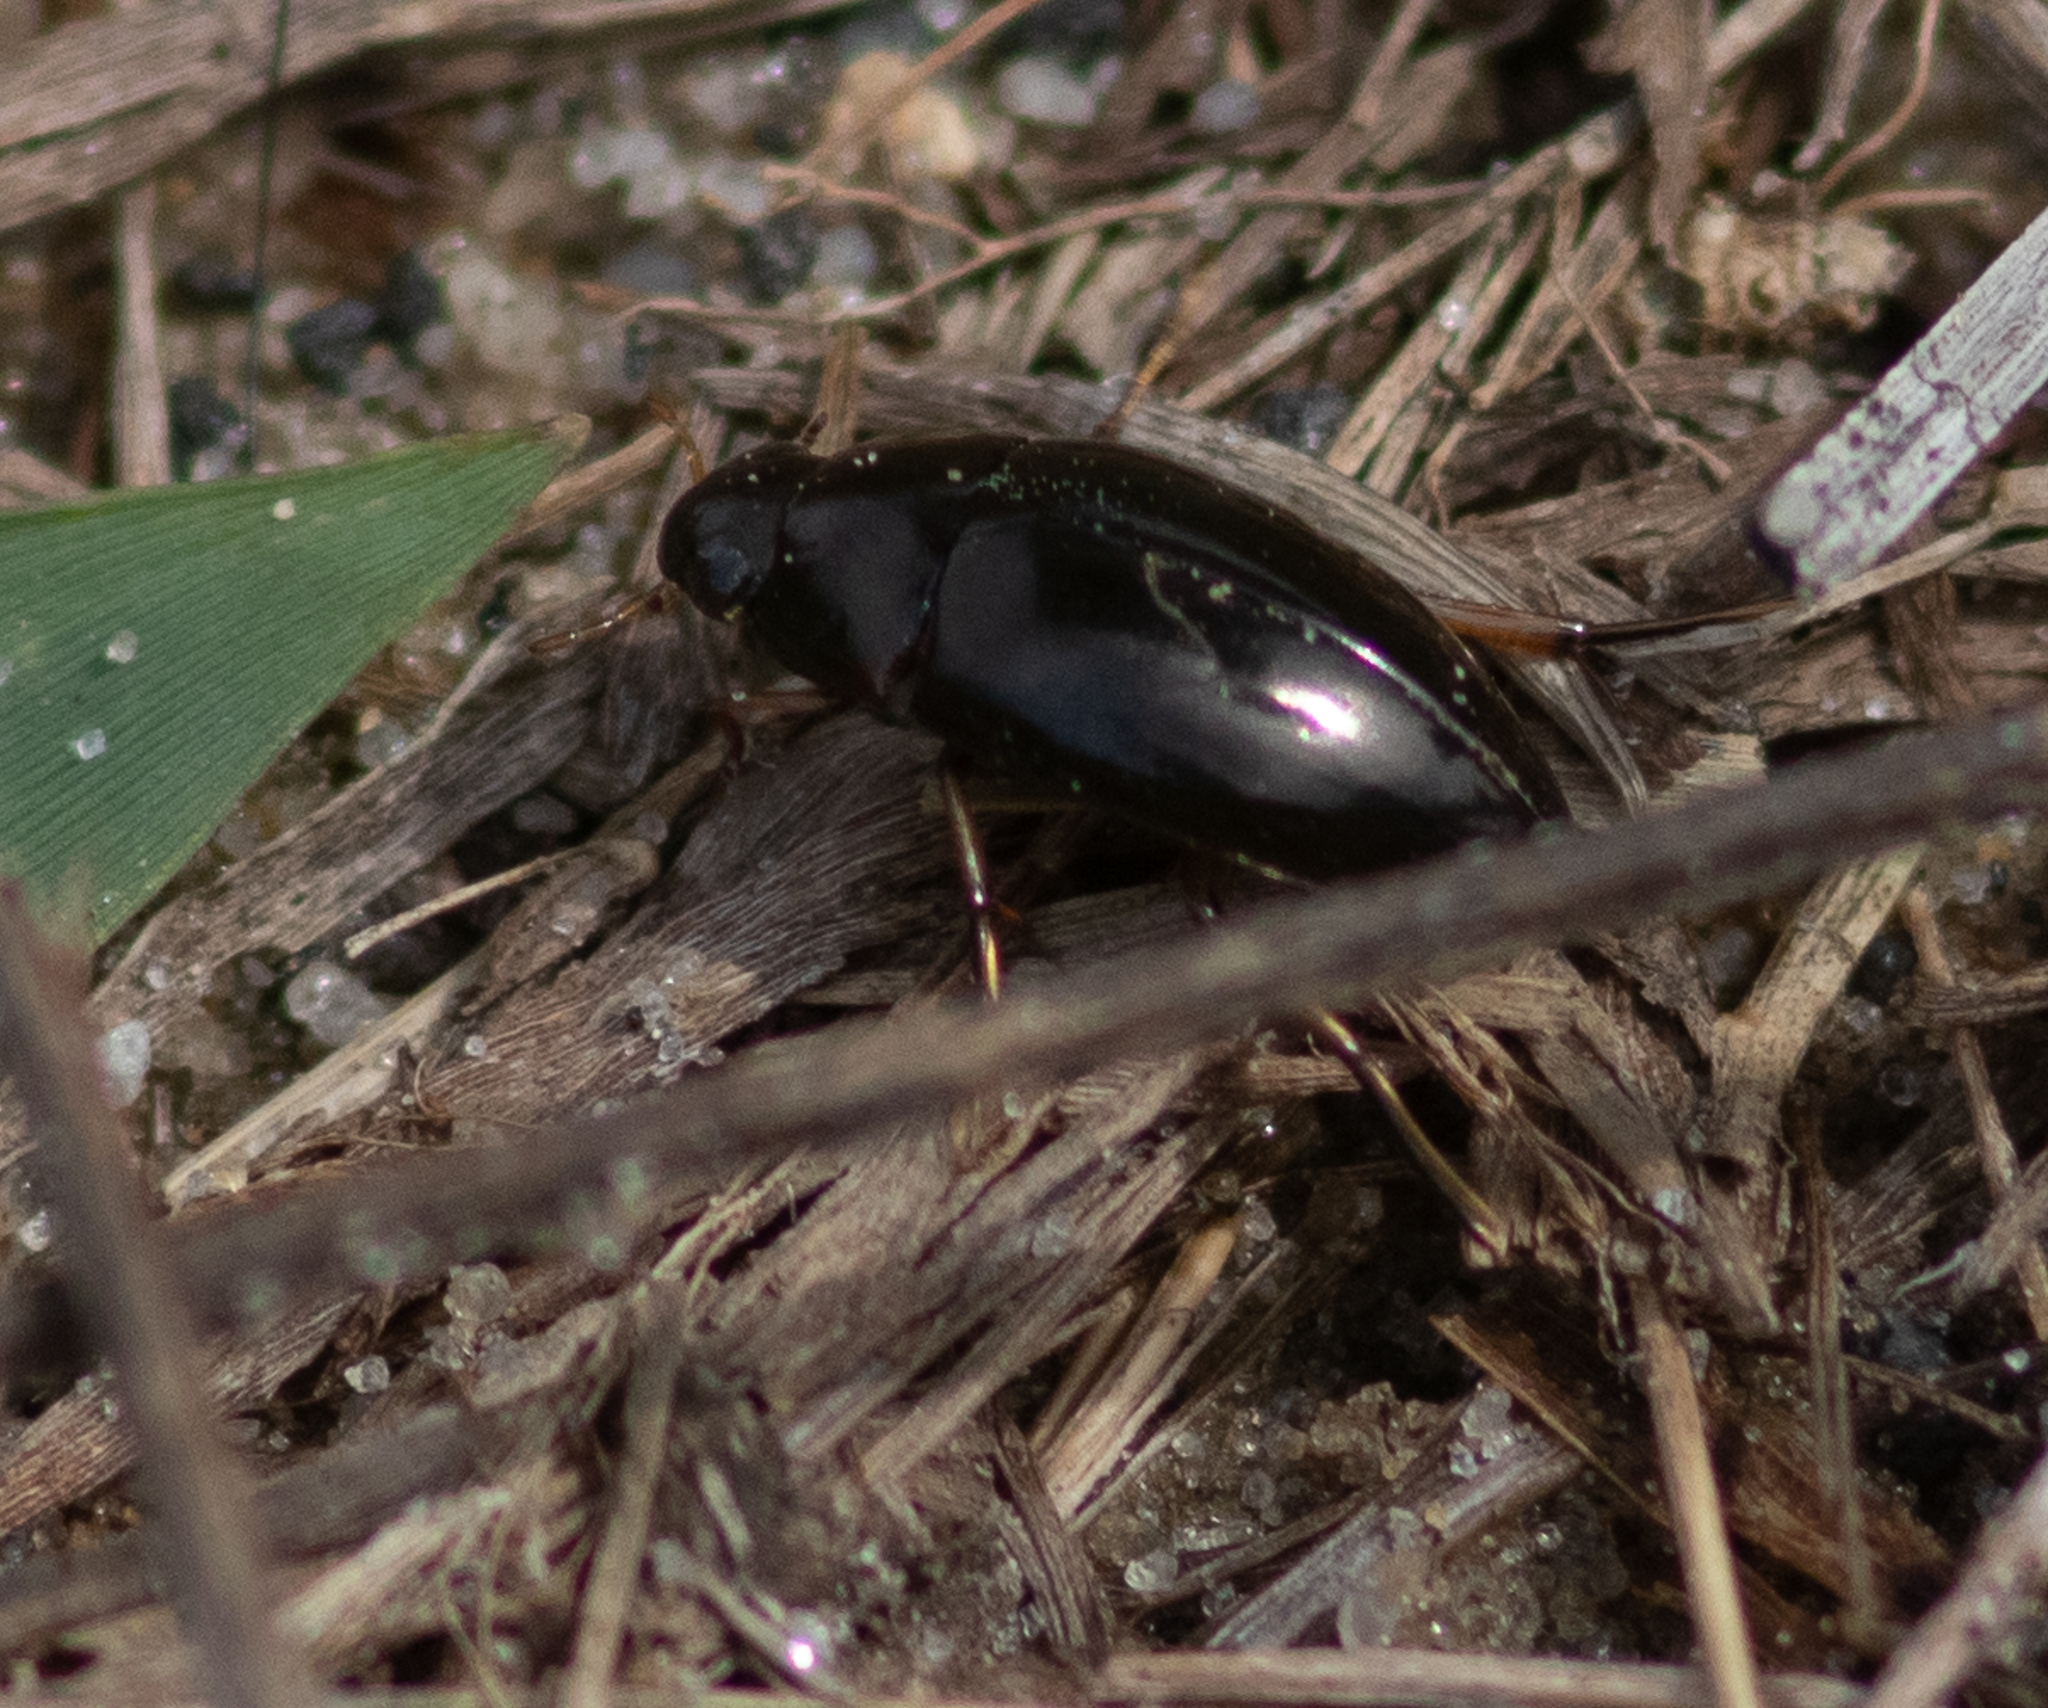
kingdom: Animalia
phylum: Arthropoda
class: Insecta
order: Coleoptera
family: Hydrophilidae
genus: Tropisternus
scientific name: Tropisternus
